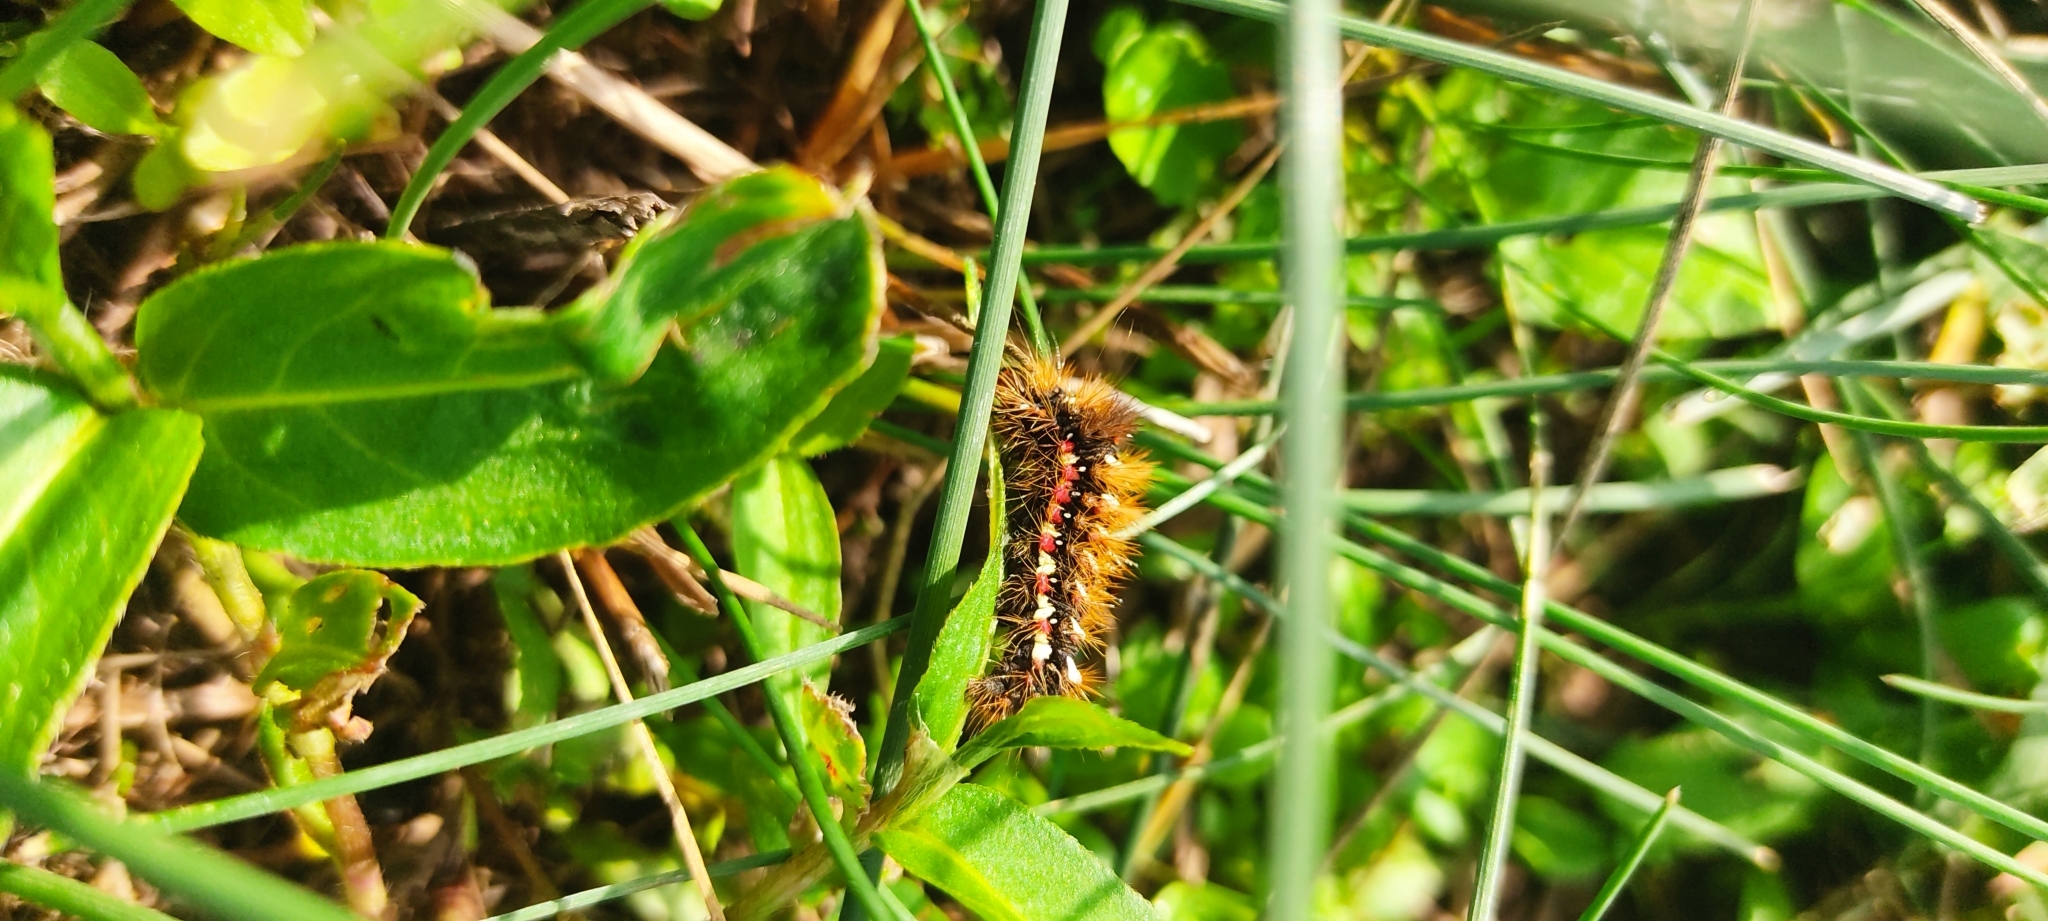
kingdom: Animalia
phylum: Arthropoda
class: Insecta
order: Lepidoptera
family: Noctuidae
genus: Acronicta
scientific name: Acronicta rumicis
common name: Knot grass
